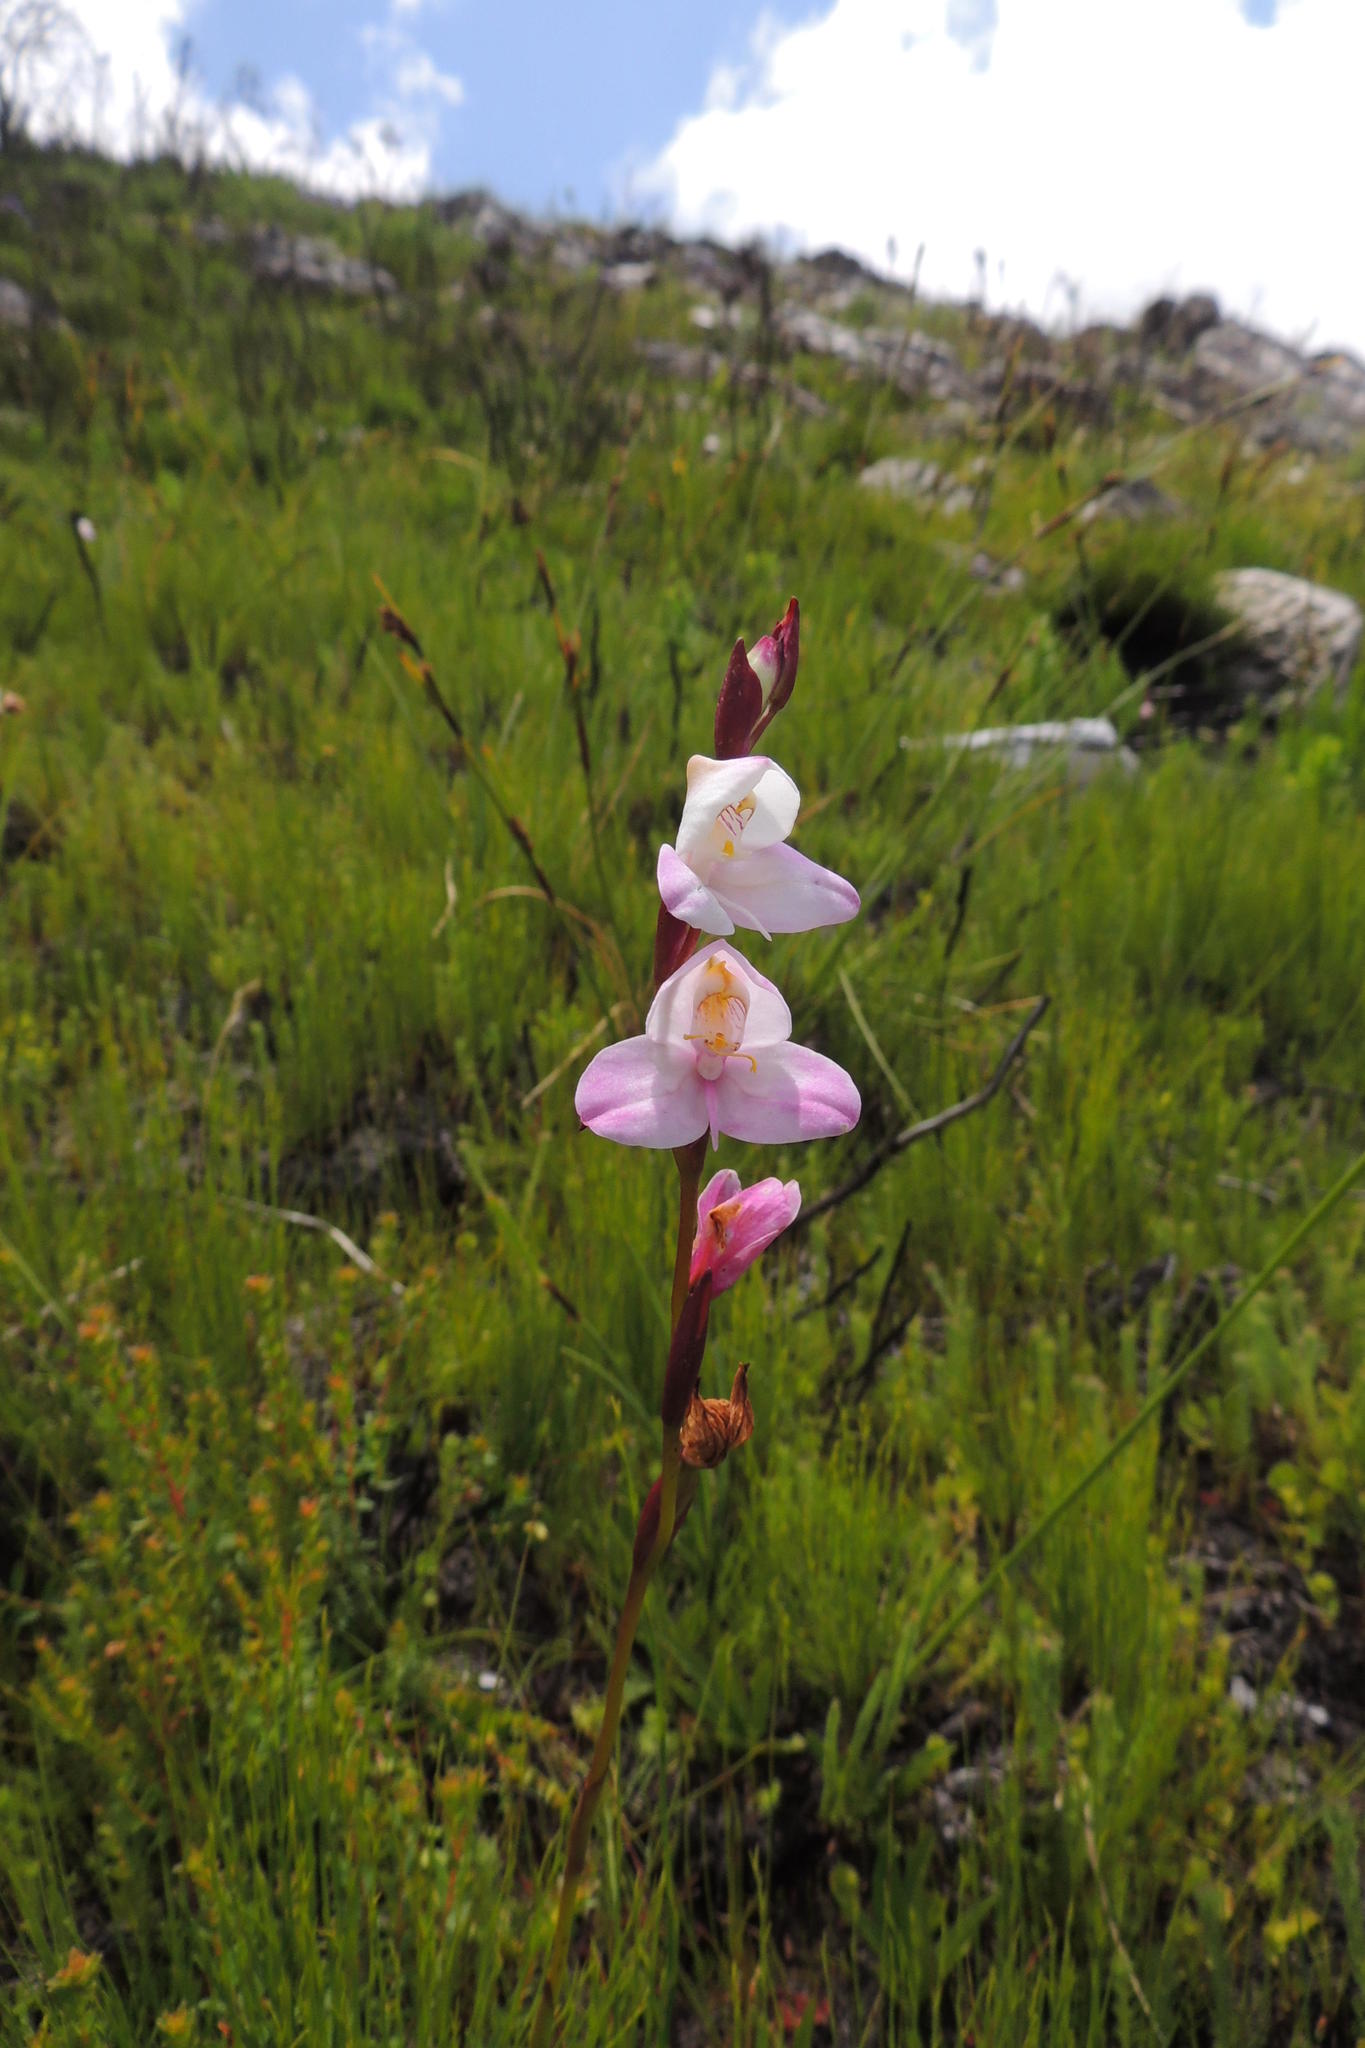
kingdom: Plantae
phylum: Tracheophyta
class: Liliopsida
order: Asparagales
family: Orchidaceae
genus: Disa
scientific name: Disa racemosa
